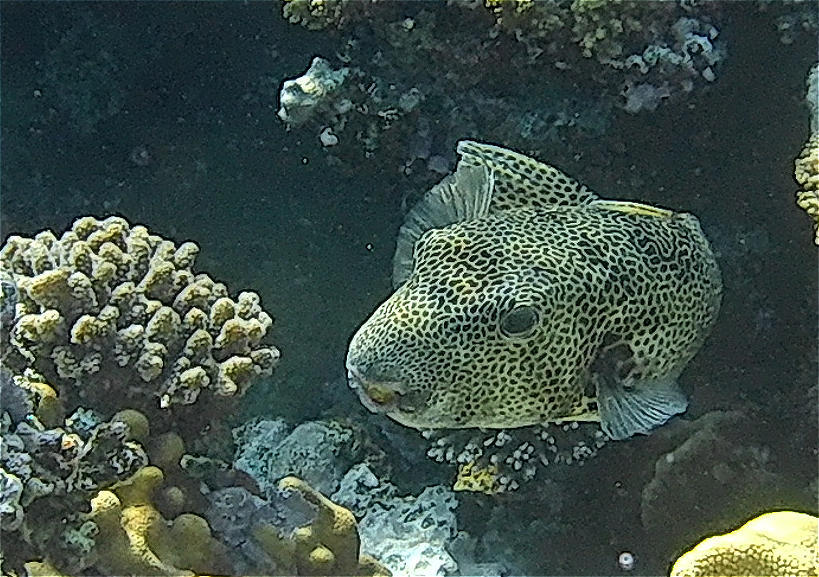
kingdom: Animalia
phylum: Chordata
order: Tetraodontiformes
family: Tetraodontidae
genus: Arothron
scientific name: Arothron stellatus
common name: Star blaasop
